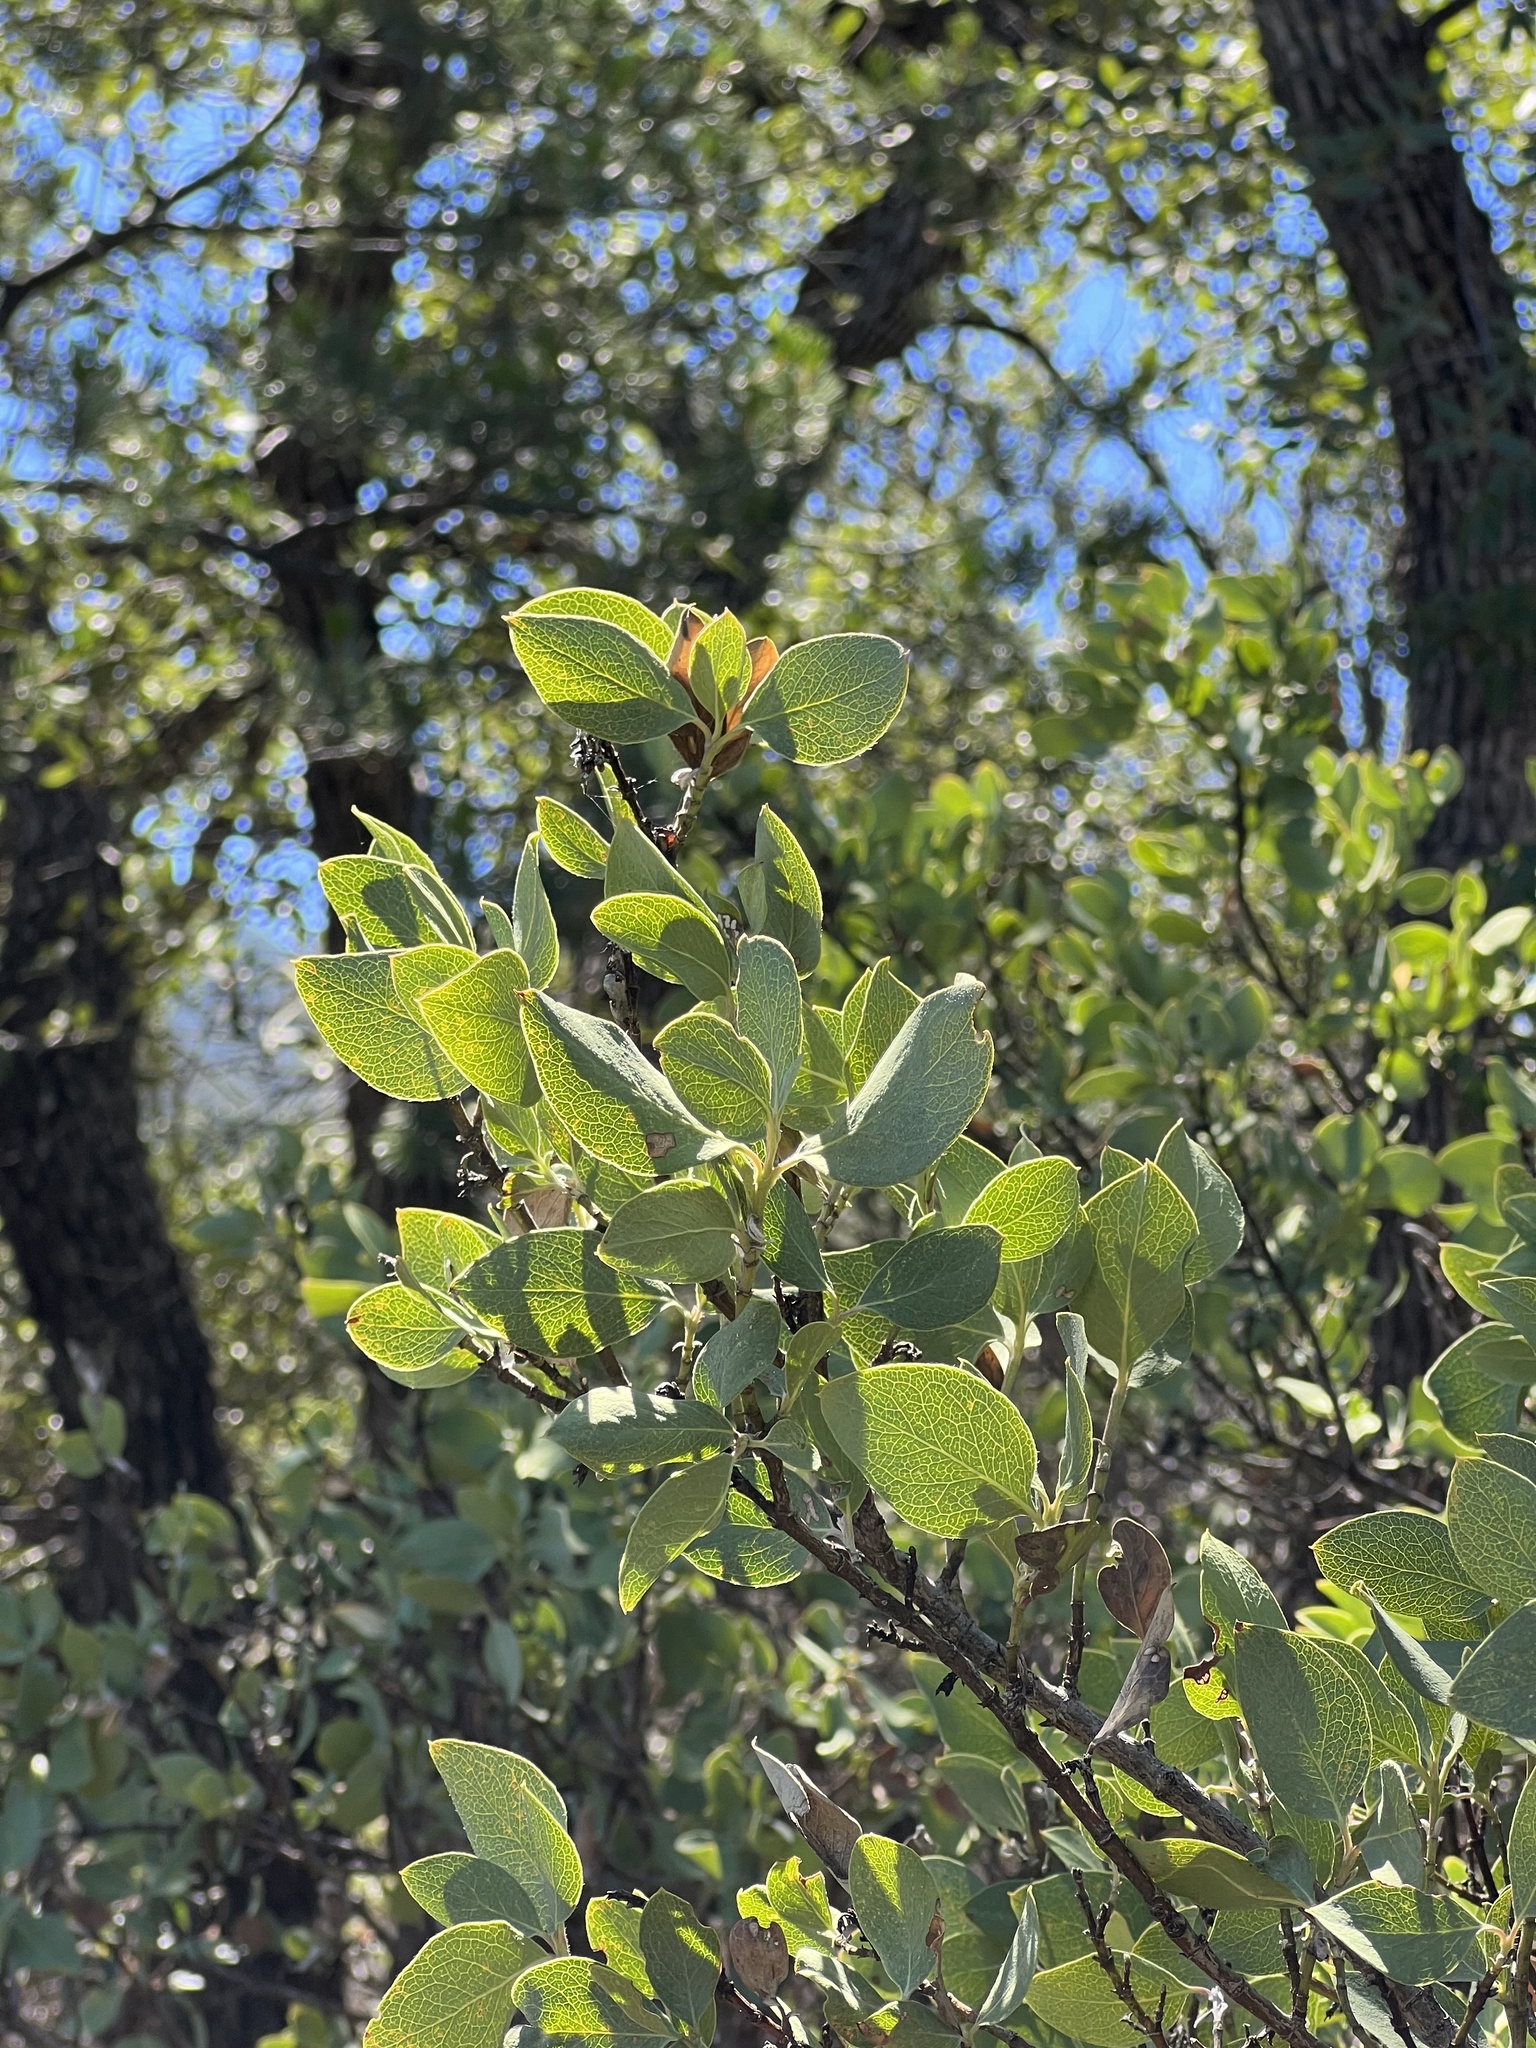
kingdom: Plantae
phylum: Tracheophyta
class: Magnoliopsida
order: Garryales
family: Garryaceae
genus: Garrya
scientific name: Garrya wrightii
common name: Wright's silktassel
